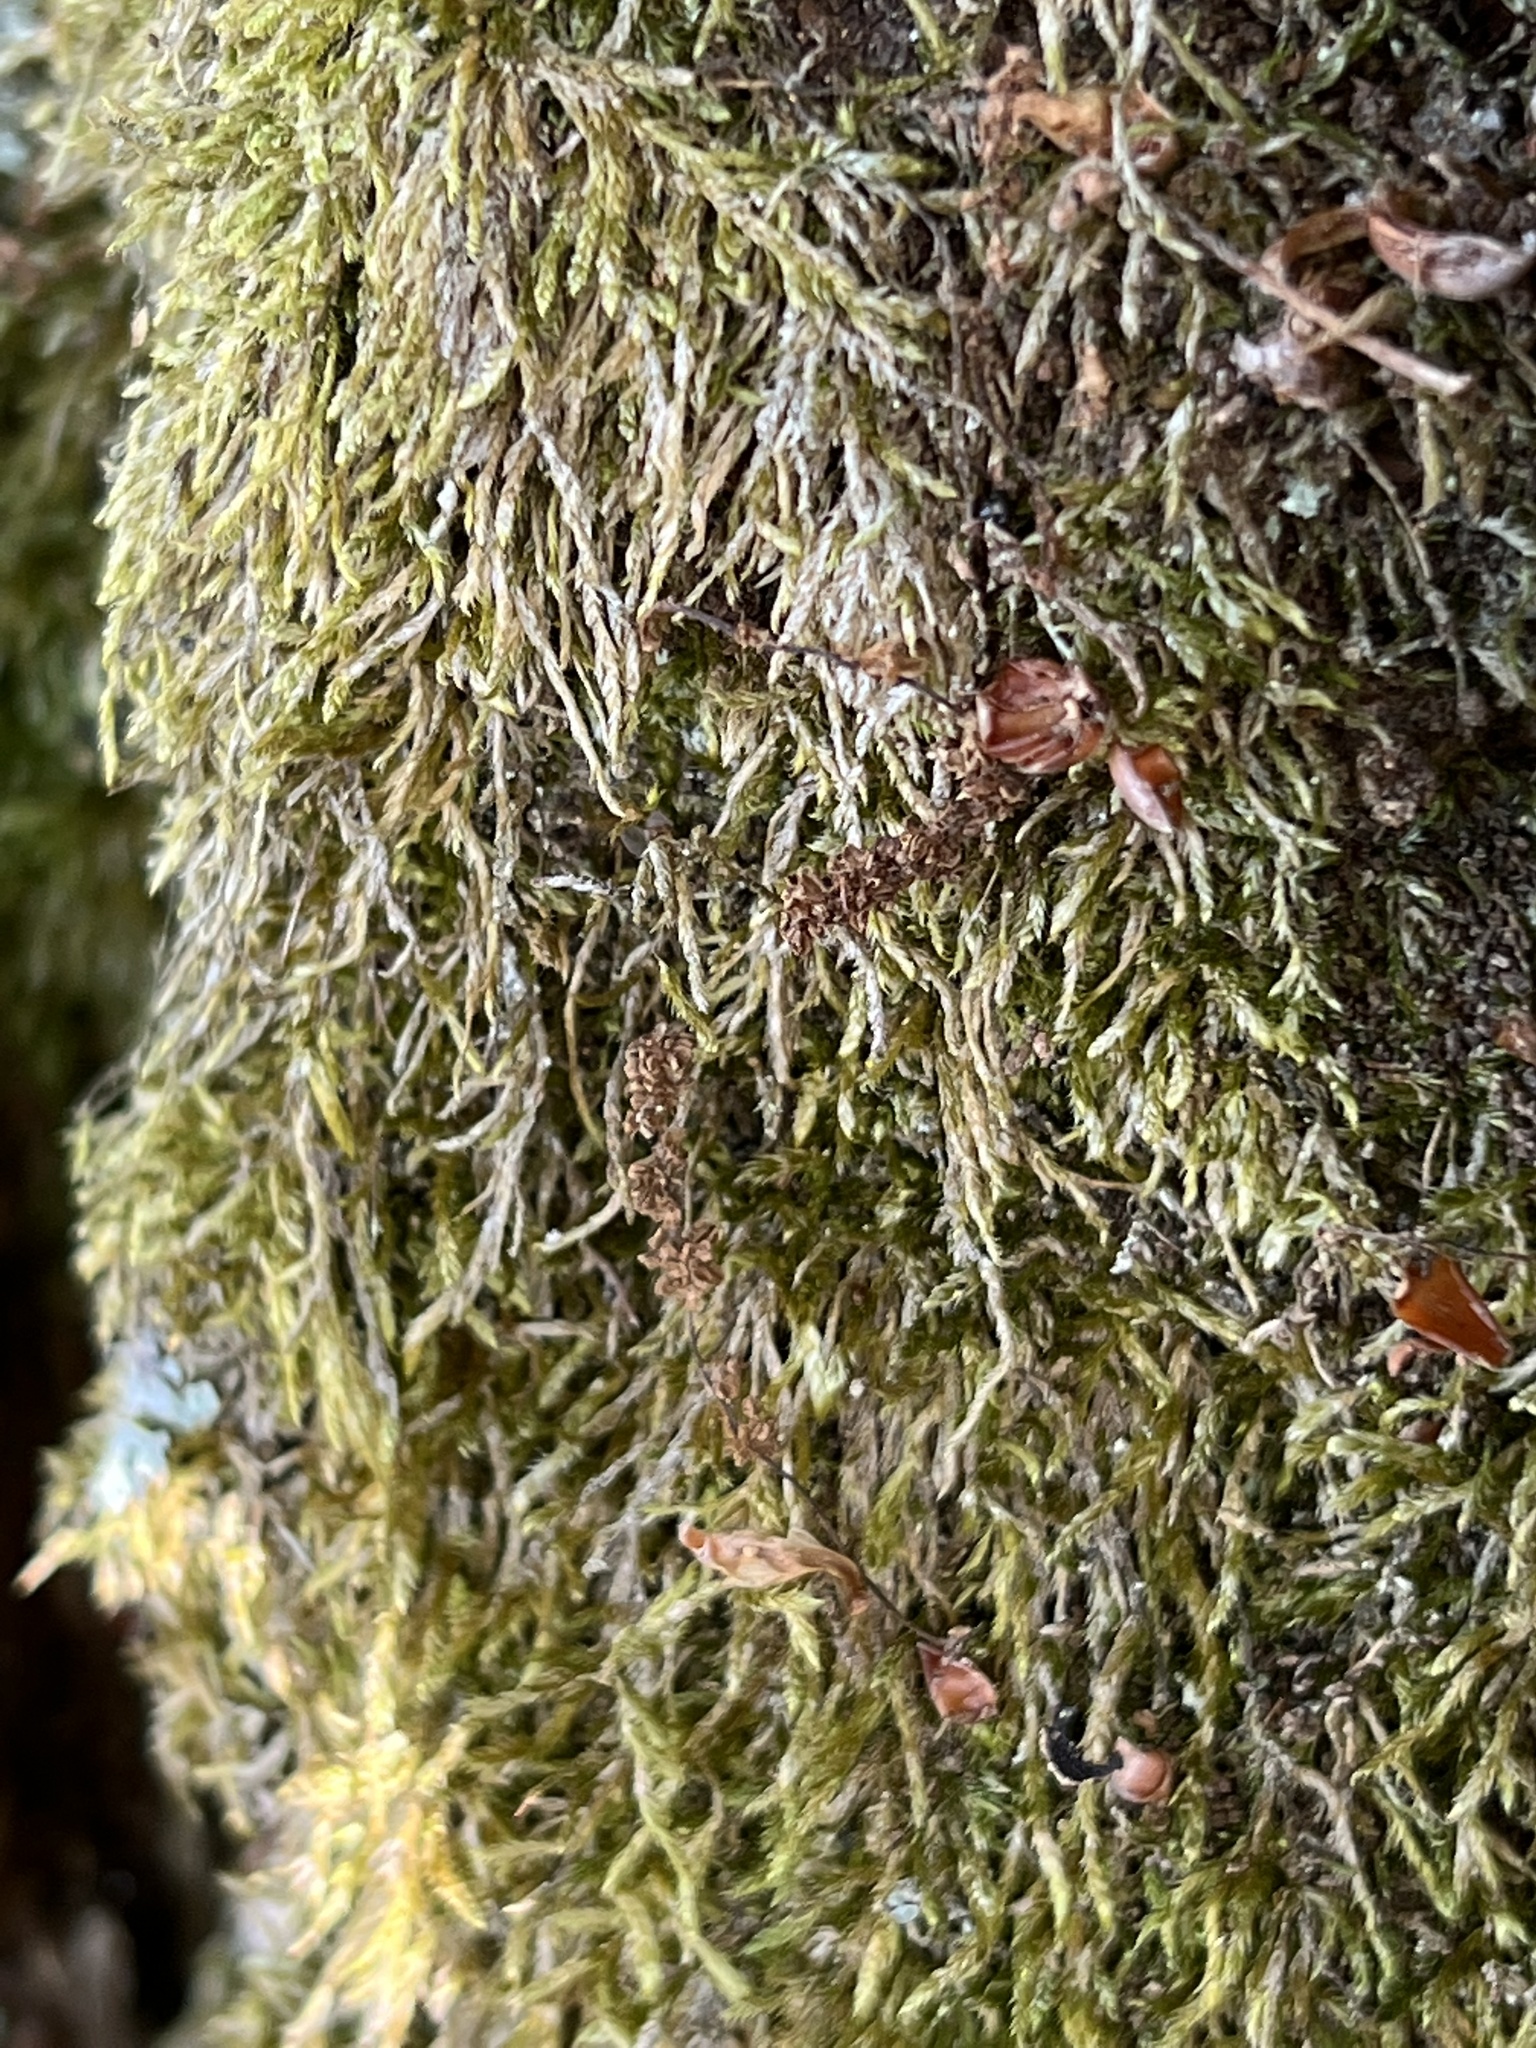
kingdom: Plantae
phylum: Bryophyta
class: Bryopsida
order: Hypnales
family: Hypnaceae
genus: Hypnum
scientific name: Hypnum cupressiforme
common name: Cypress-leaved plait-moss
